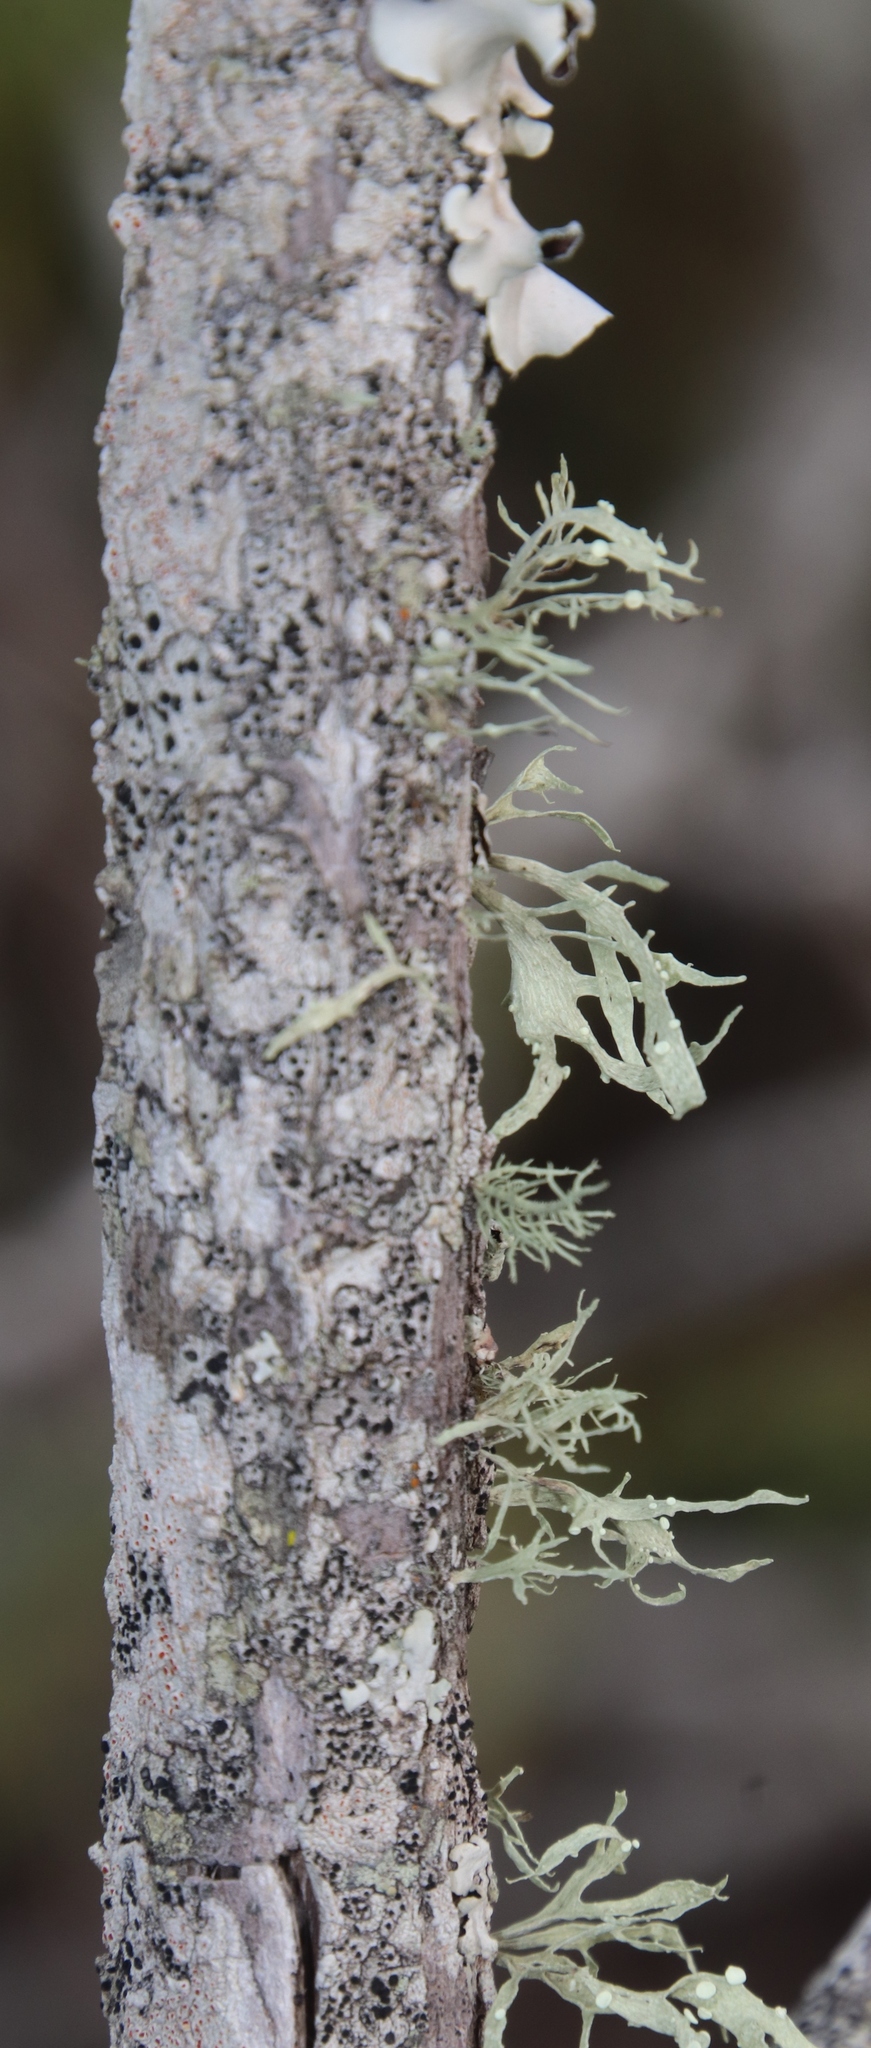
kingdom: Fungi
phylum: Ascomycota
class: Lecanoromycetes
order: Lecanorales
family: Ramalinaceae
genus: Ramalina
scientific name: Ramalina celastri
